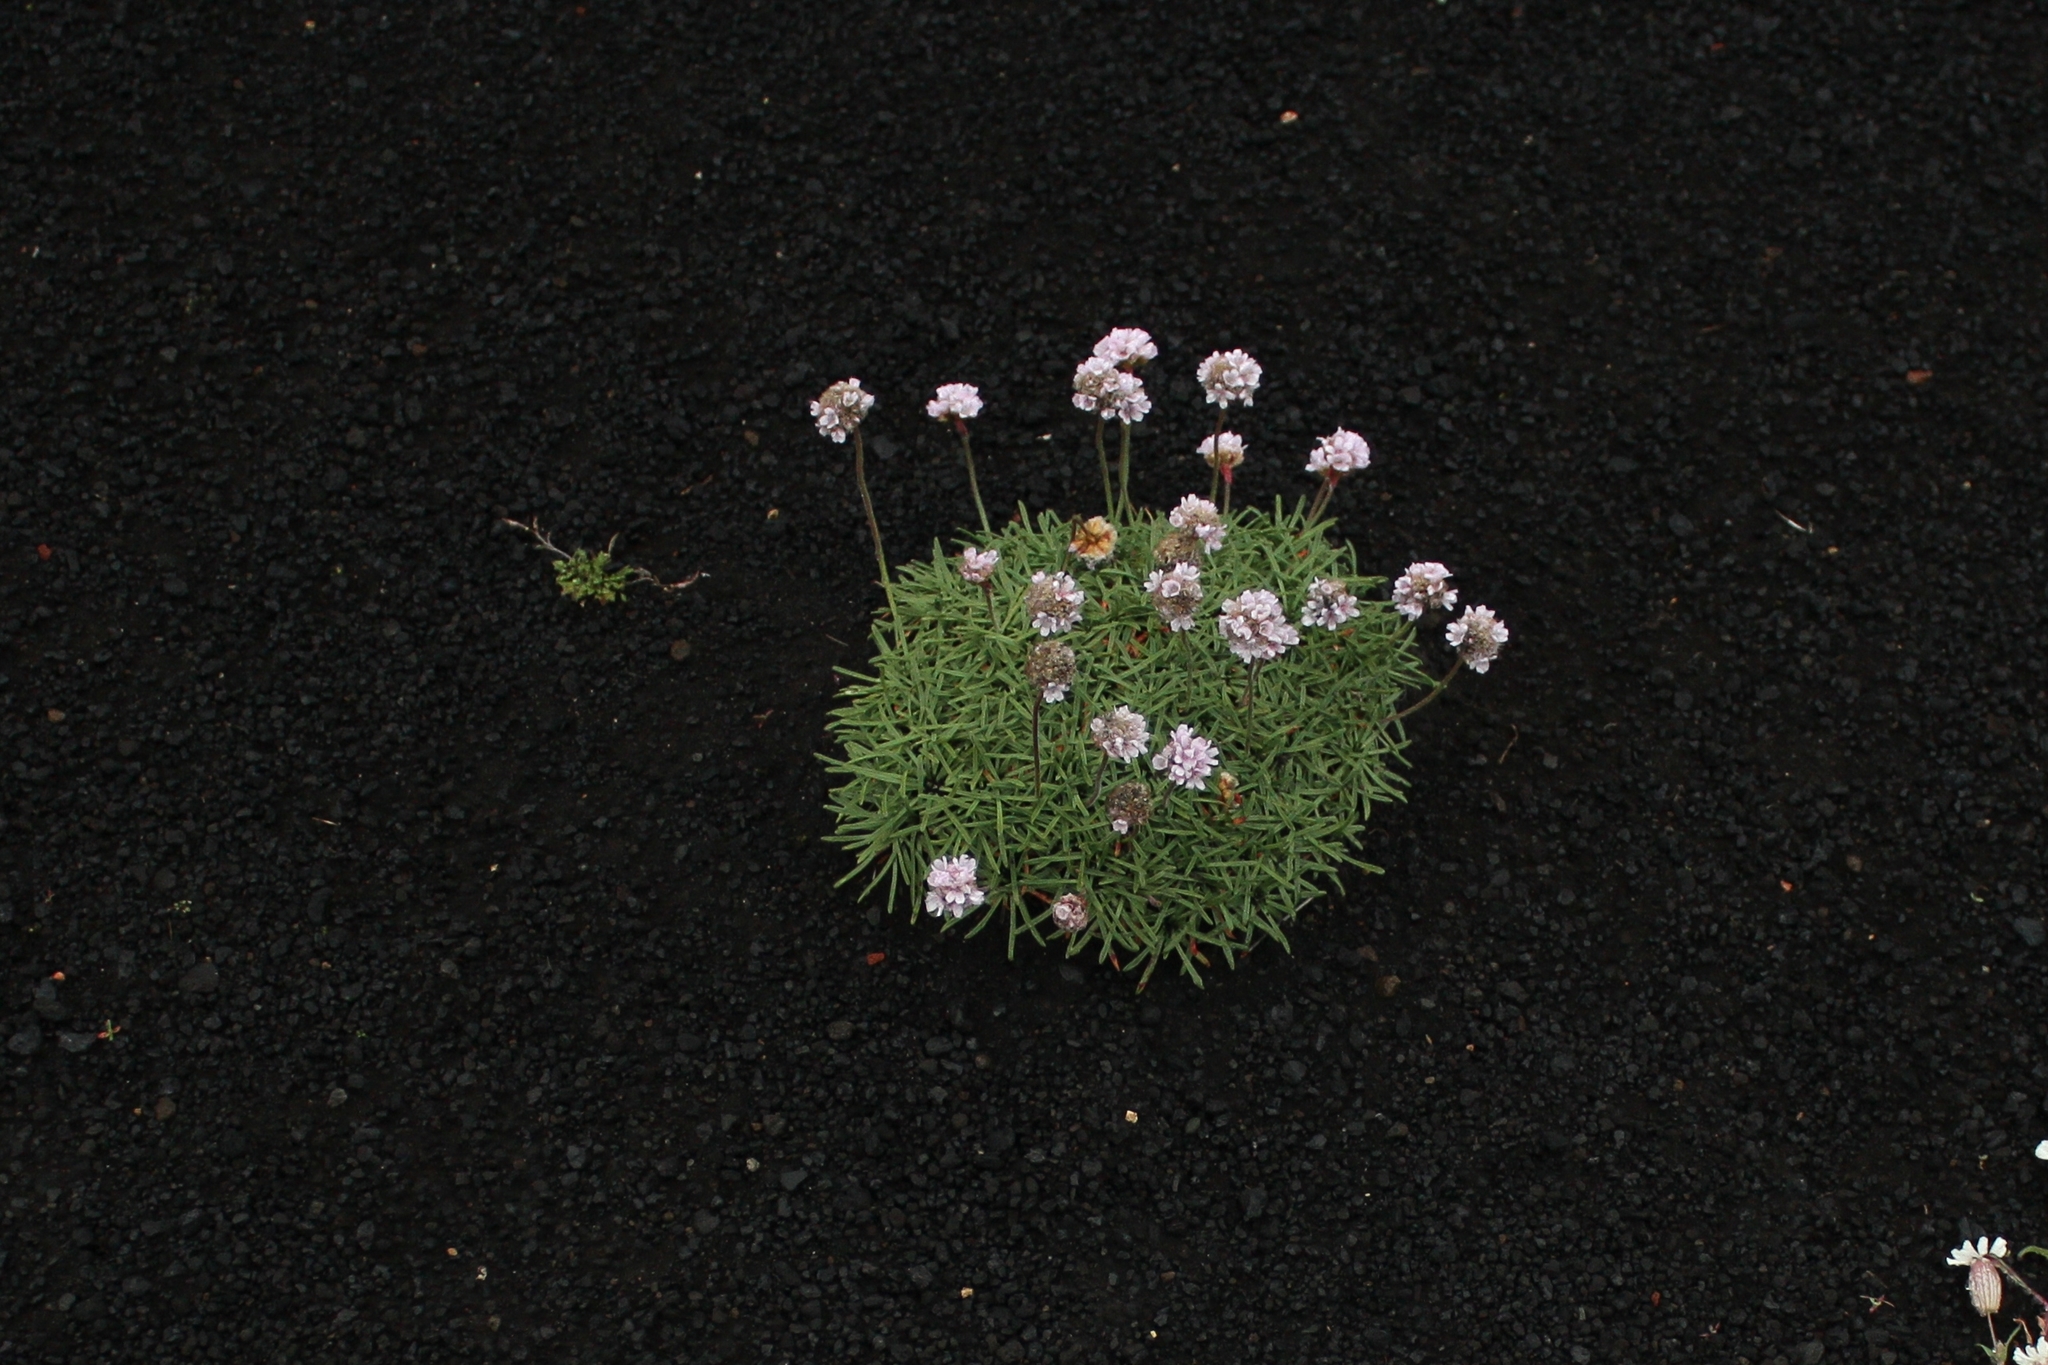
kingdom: Plantae
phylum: Tracheophyta
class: Magnoliopsida
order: Caryophyllales
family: Plumbaginaceae
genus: Armeria
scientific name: Armeria maritima
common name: Thrift
